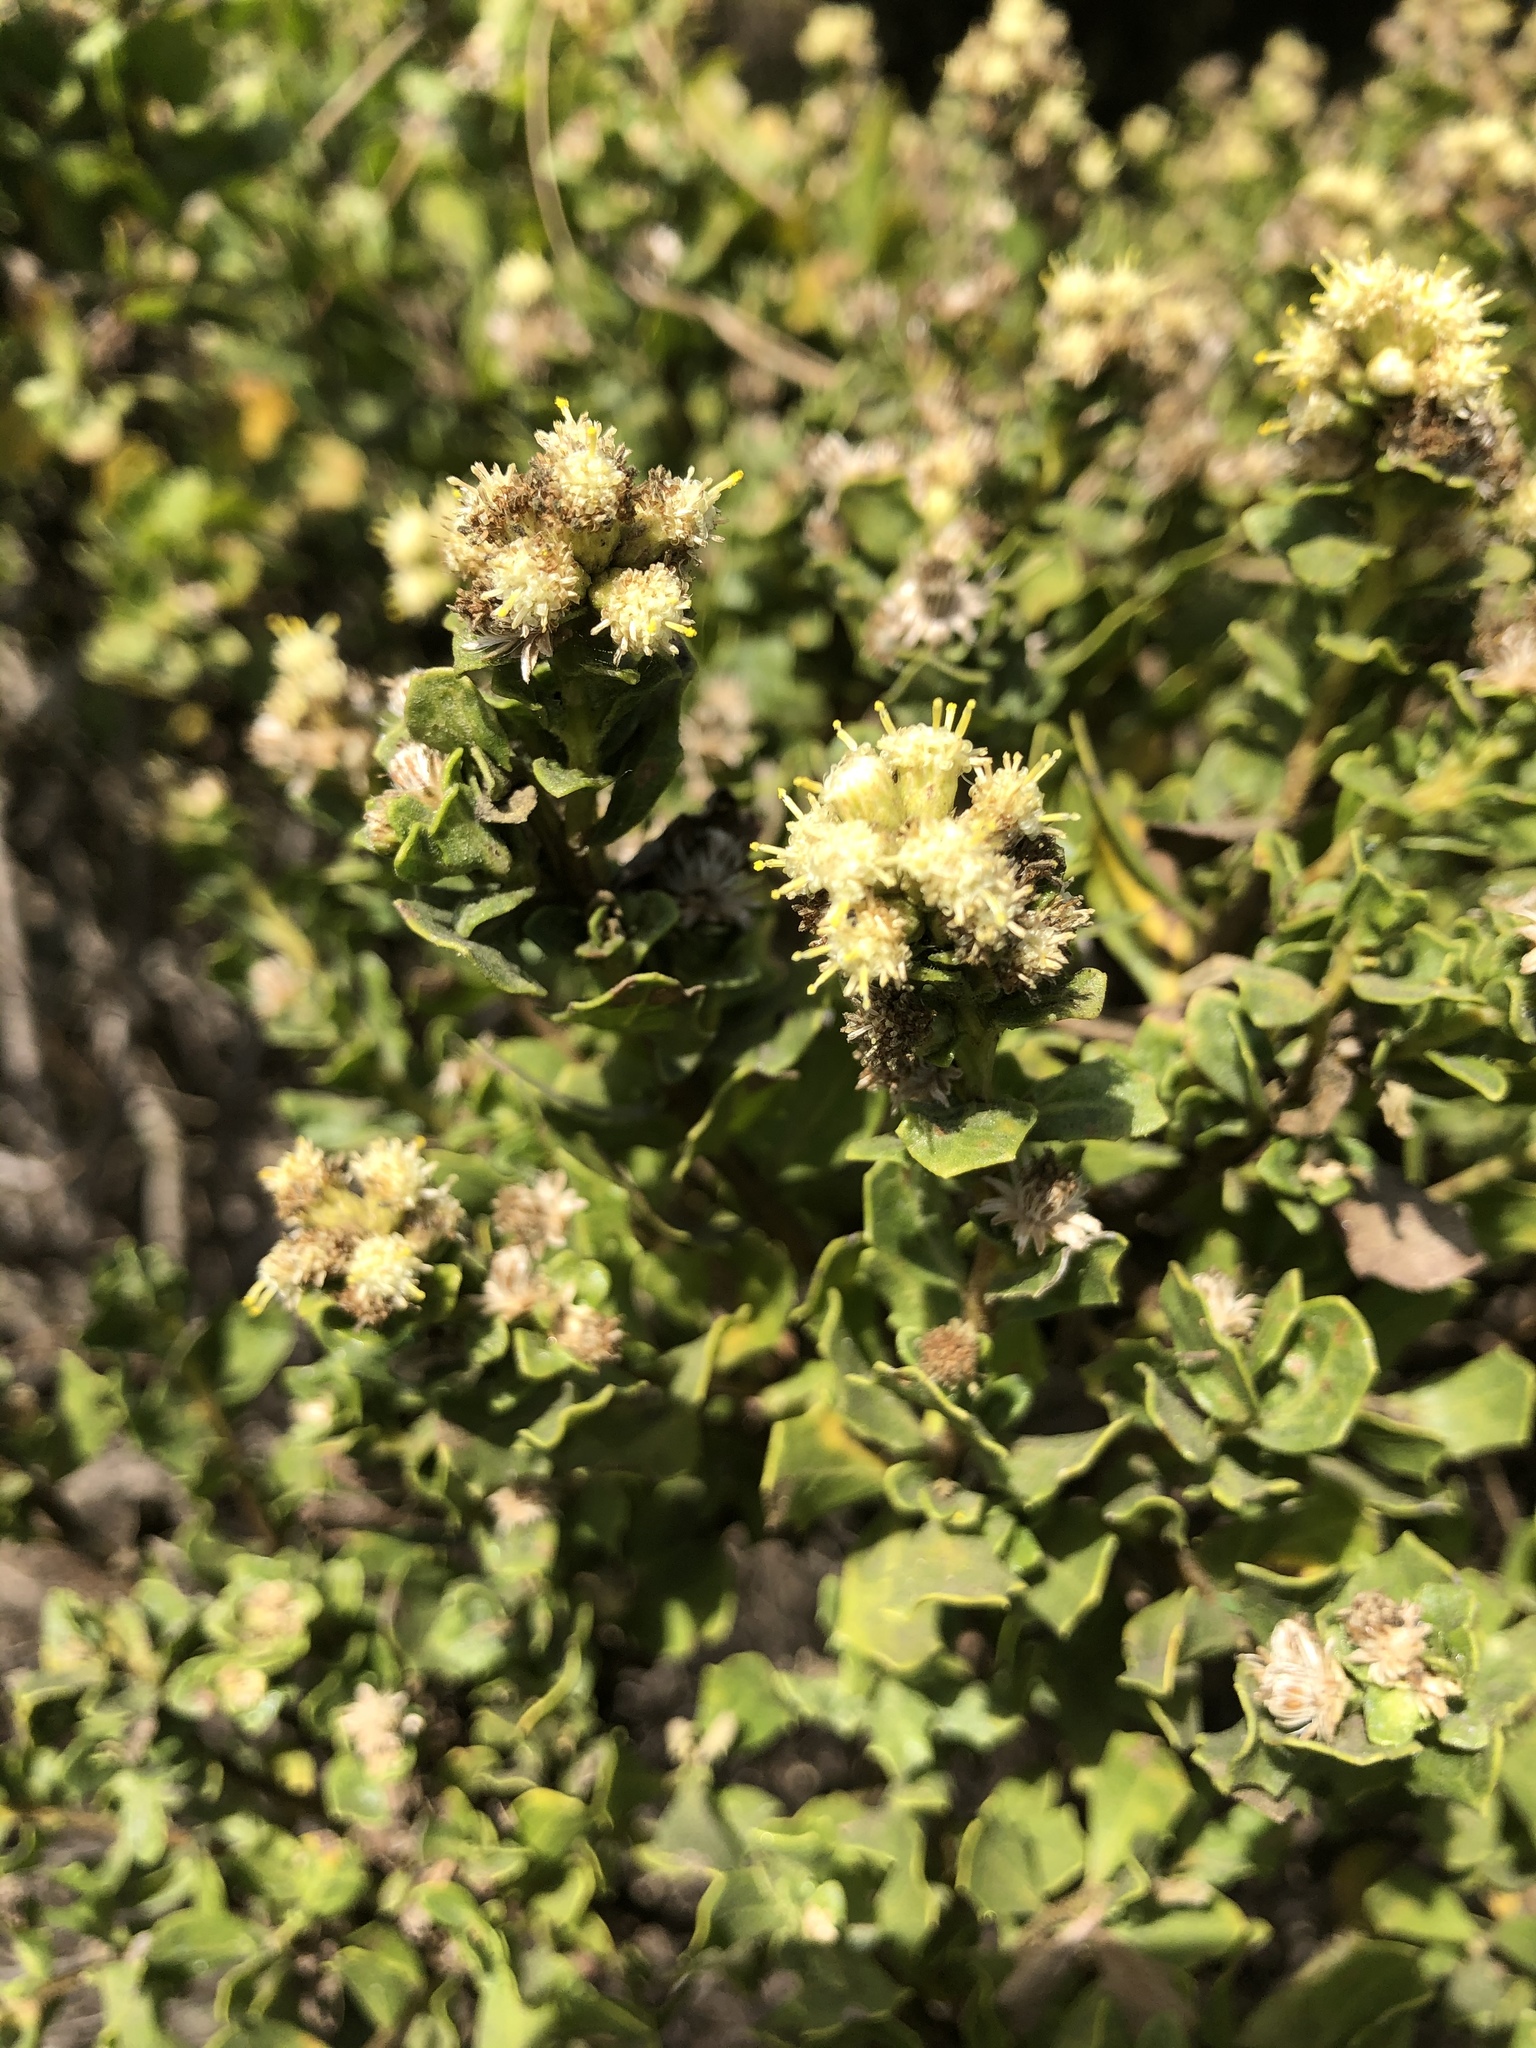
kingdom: Plantae
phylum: Tracheophyta
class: Magnoliopsida
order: Asterales
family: Asteraceae
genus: Baccharis
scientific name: Baccharis pilularis
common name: Coyotebrush
